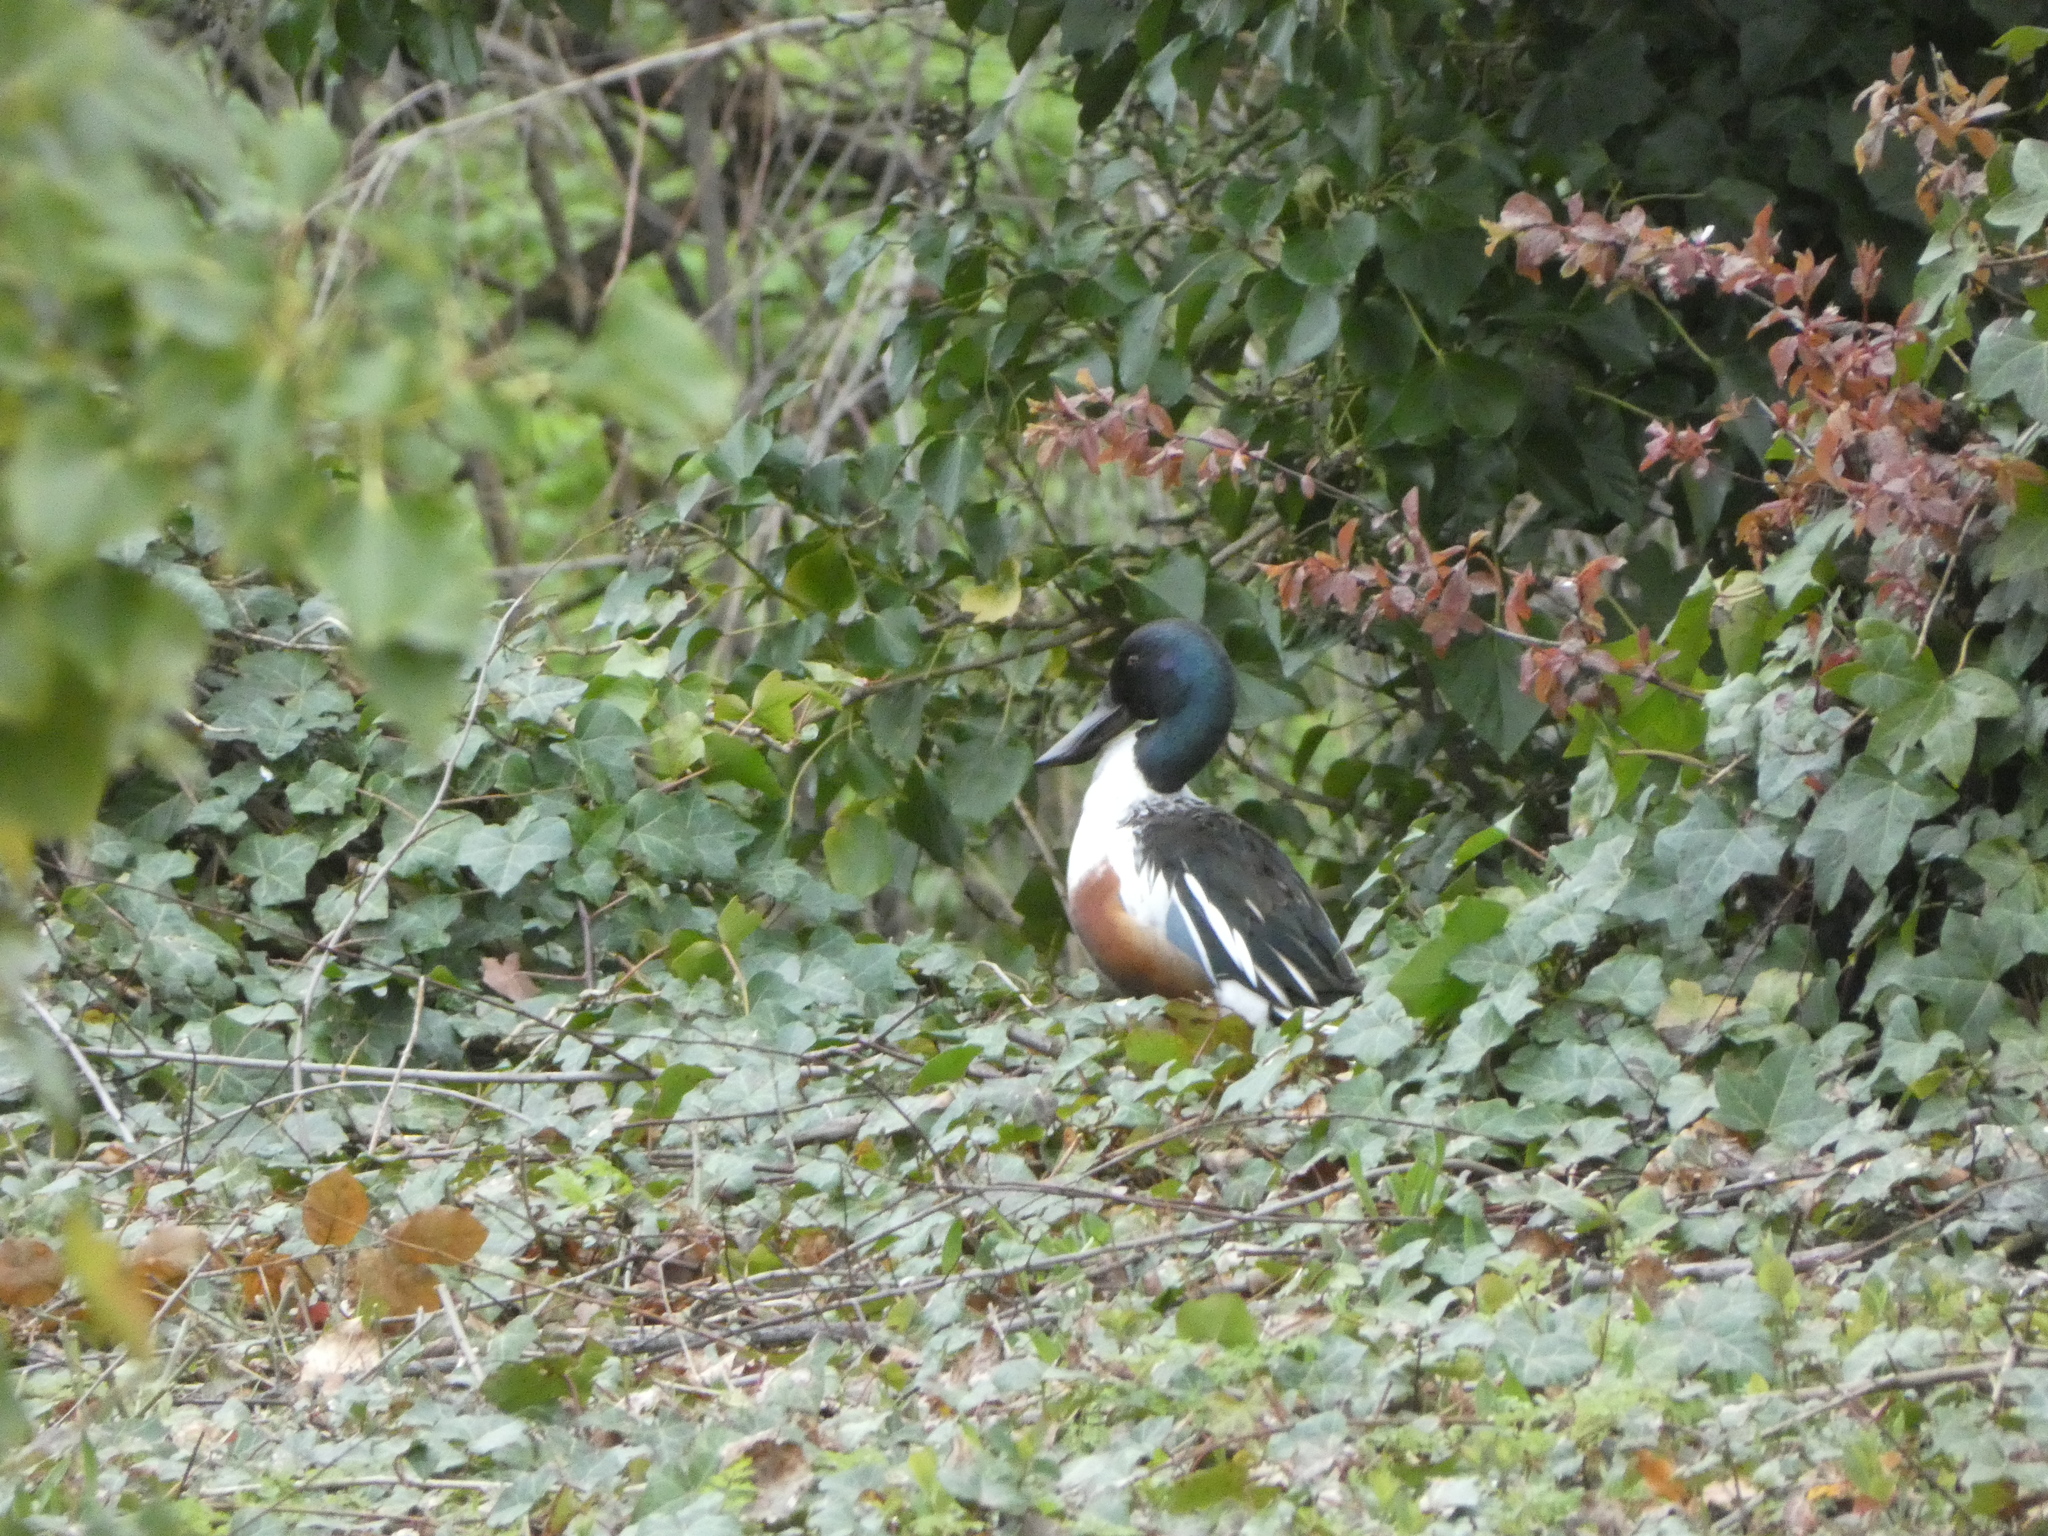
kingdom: Animalia
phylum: Chordata
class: Aves
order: Anseriformes
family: Anatidae
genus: Spatula
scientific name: Spatula clypeata
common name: Northern shoveler
